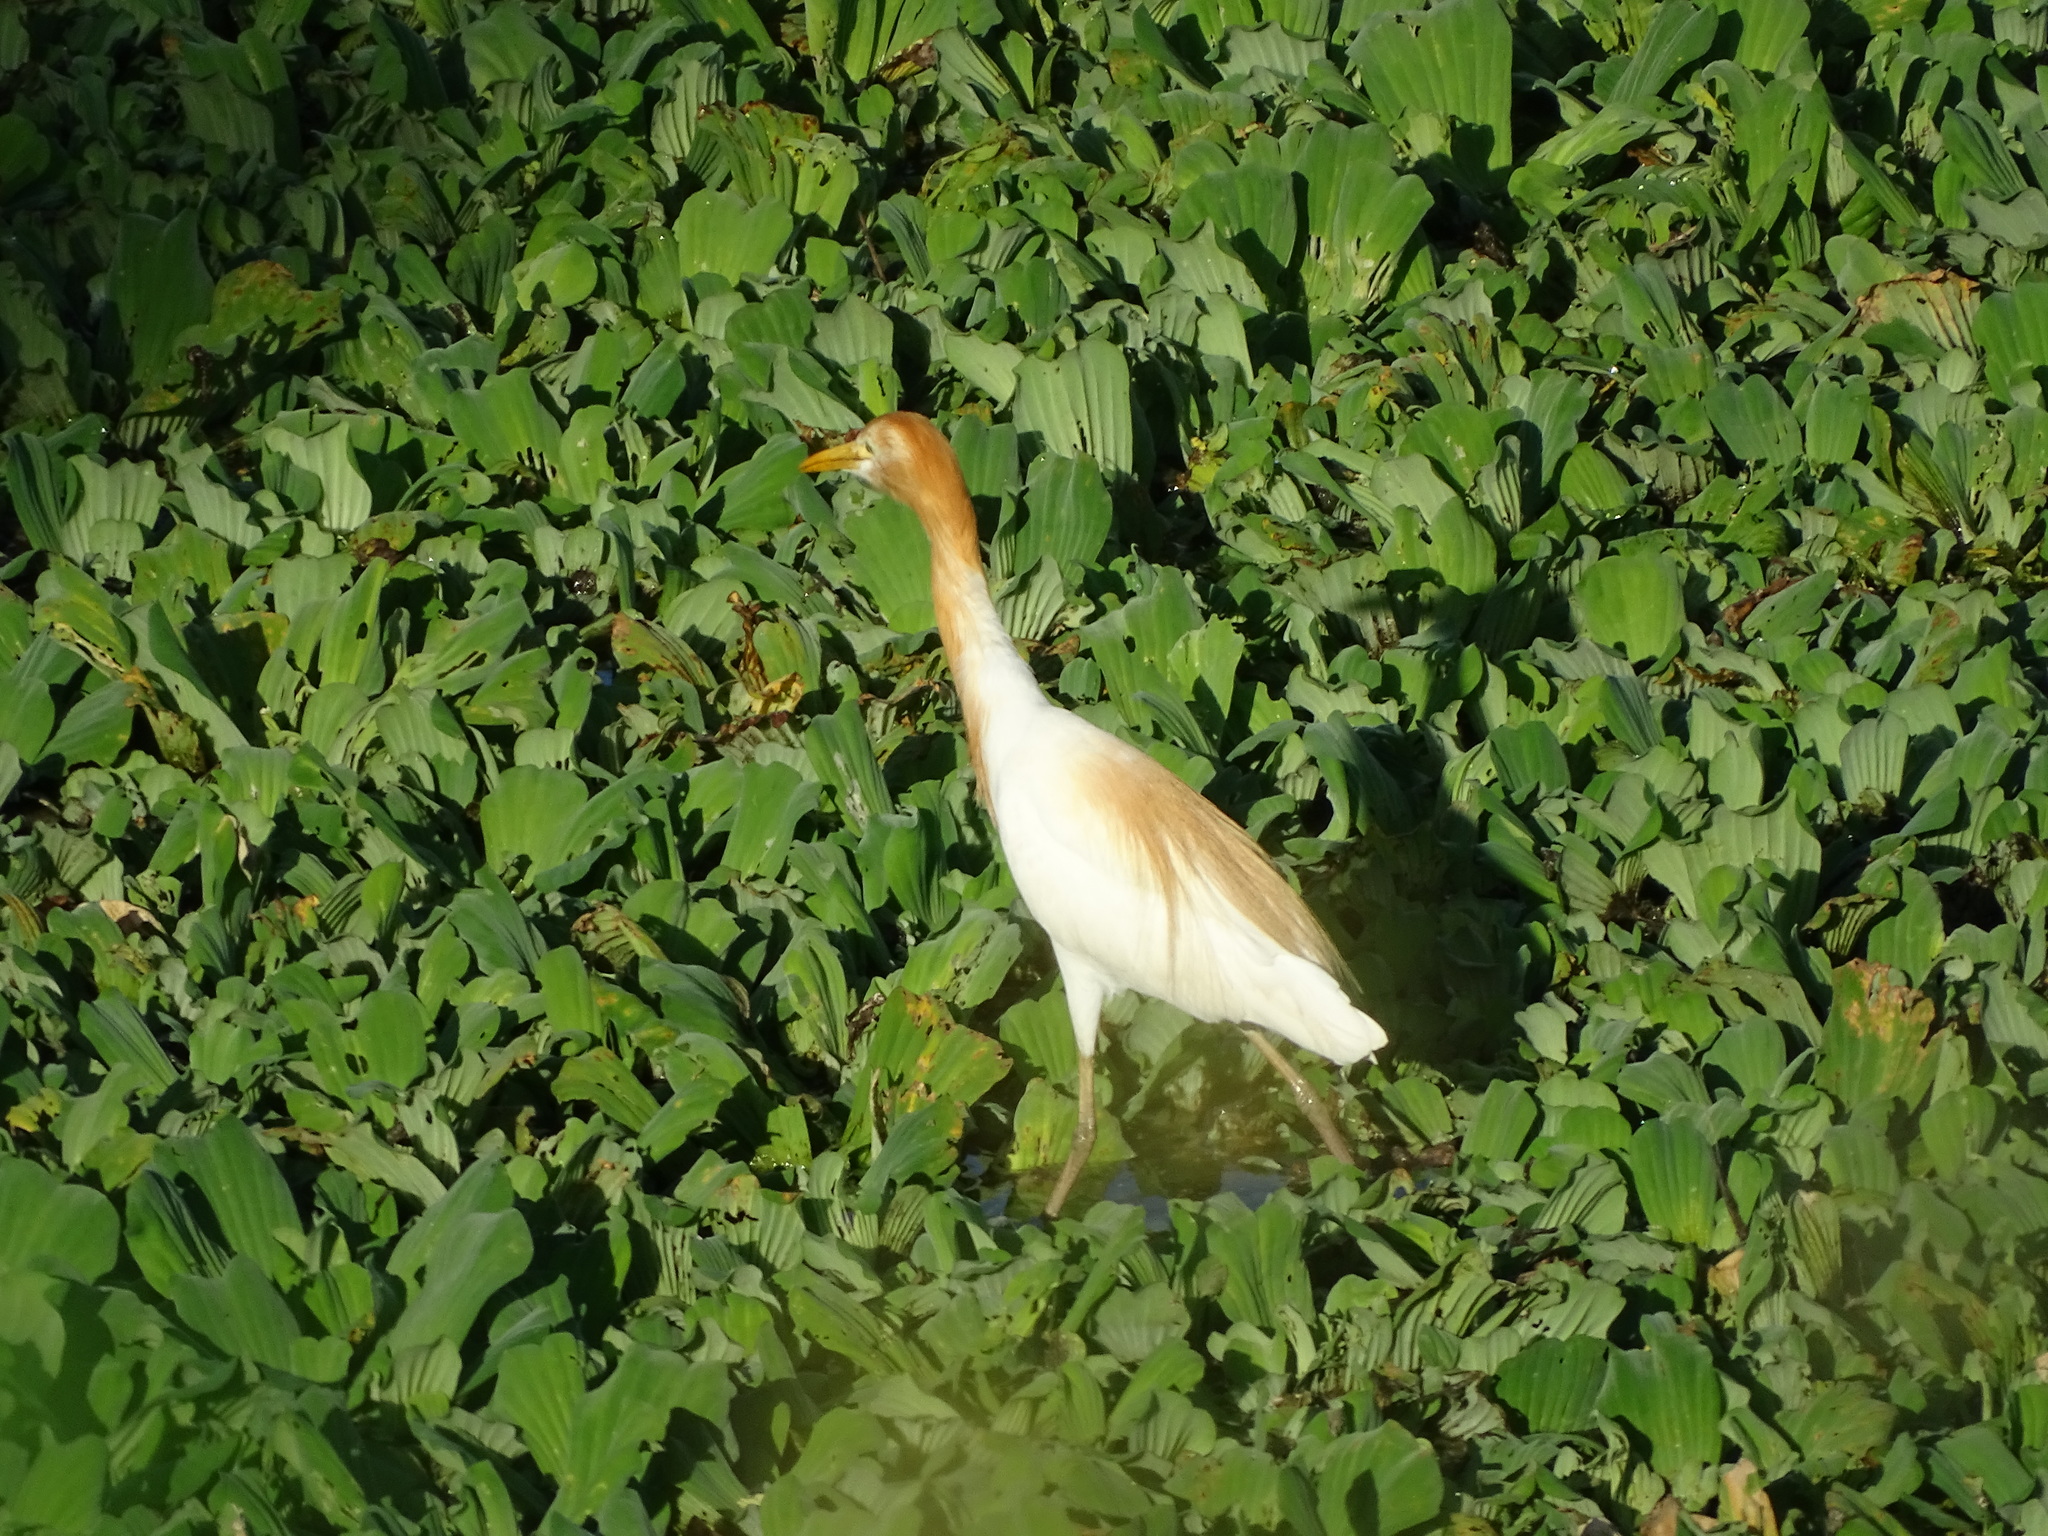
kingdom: Animalia
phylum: Chordata
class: Aves
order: Pelecaniformes
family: Ardeidae
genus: Bubulcus
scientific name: Bubulcus coromandus
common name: Eastern cattle egret
